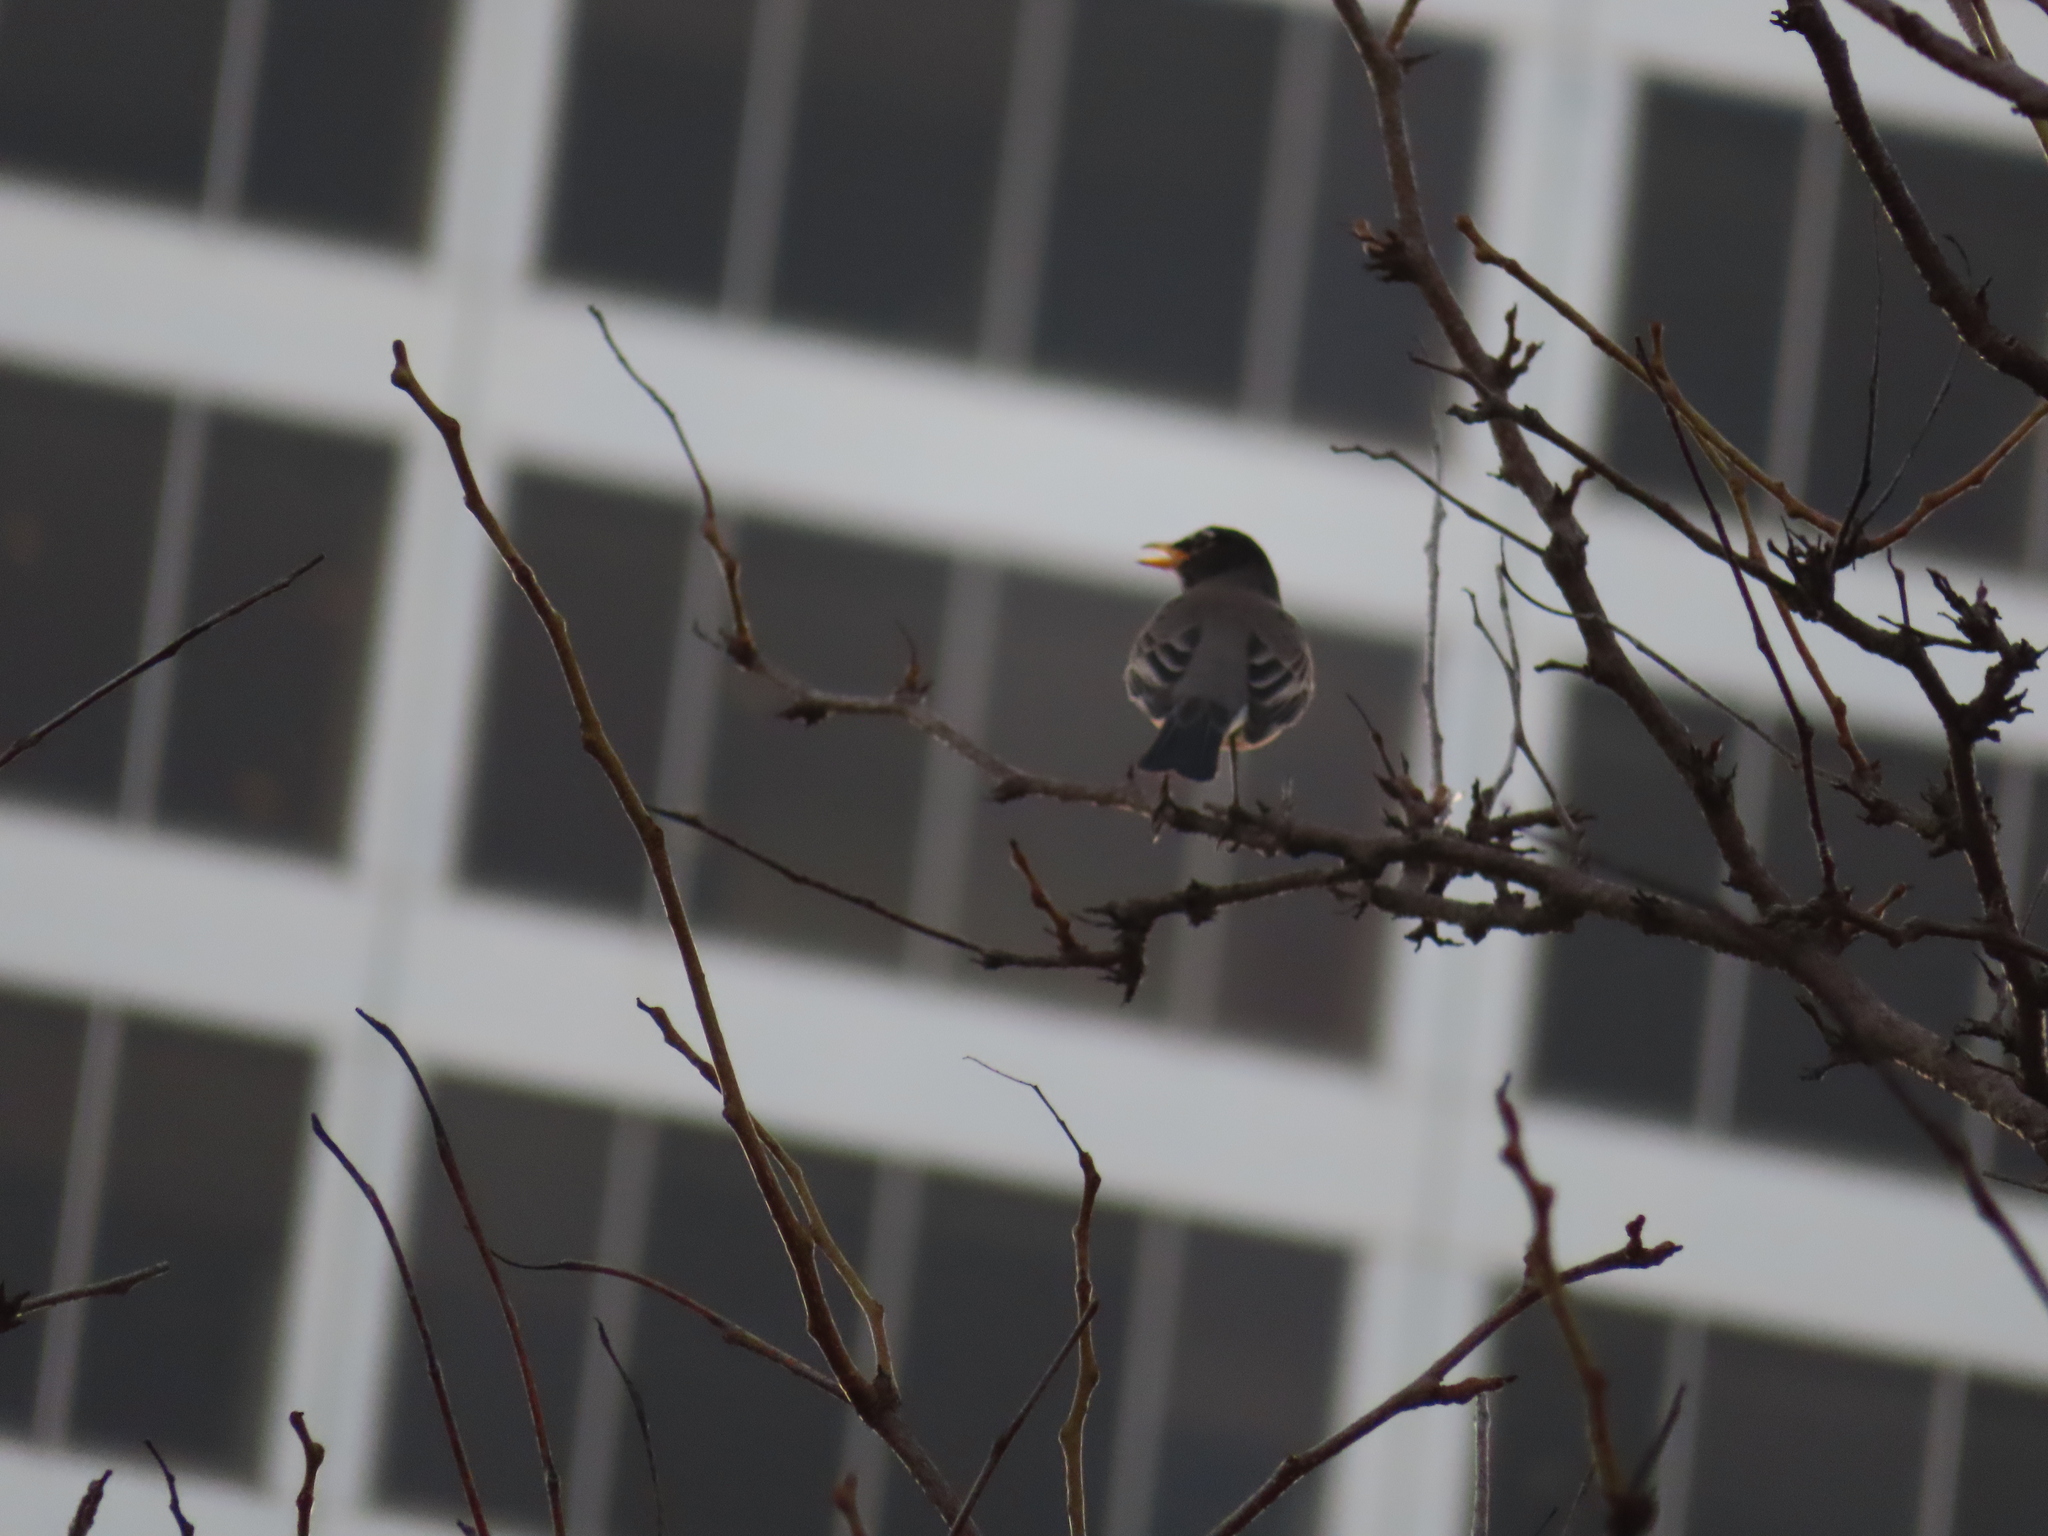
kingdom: Animalia
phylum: Chordata
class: Aves
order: Passeriformes
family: Turdidae
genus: Turdus
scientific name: Turdus migratorius
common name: American robin
